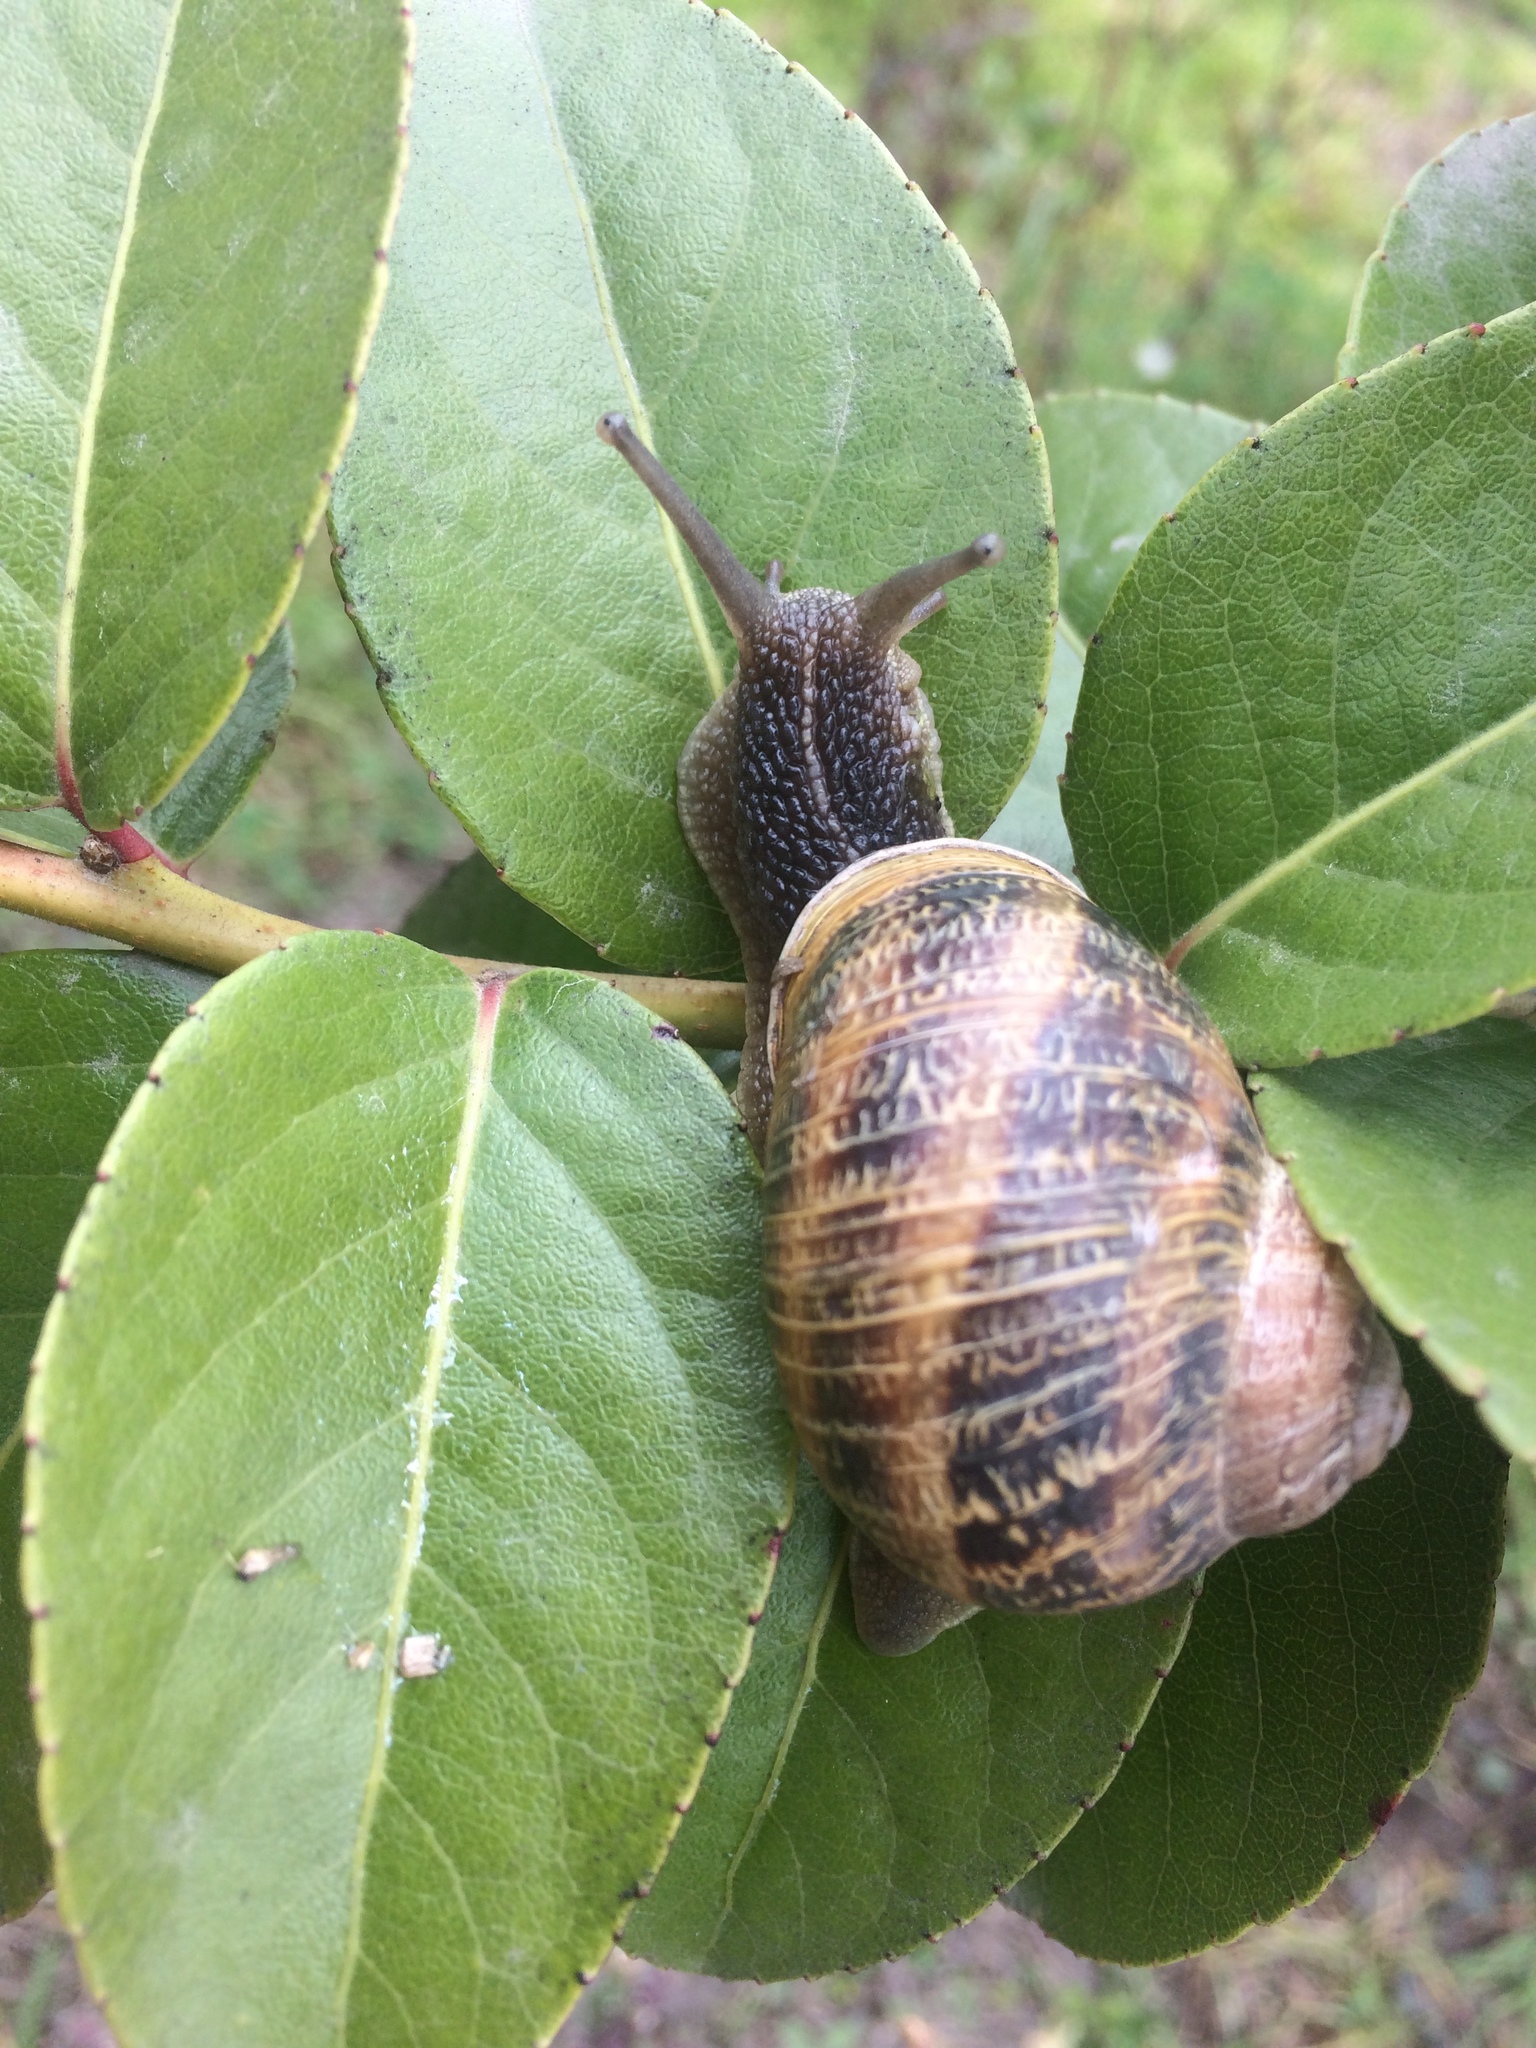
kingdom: Animalia
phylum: Mollusca
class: Gastropoda
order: Stylommatophora
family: Helicidae
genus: Cornu
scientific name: Cornu aspersum
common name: Brown garden snail
